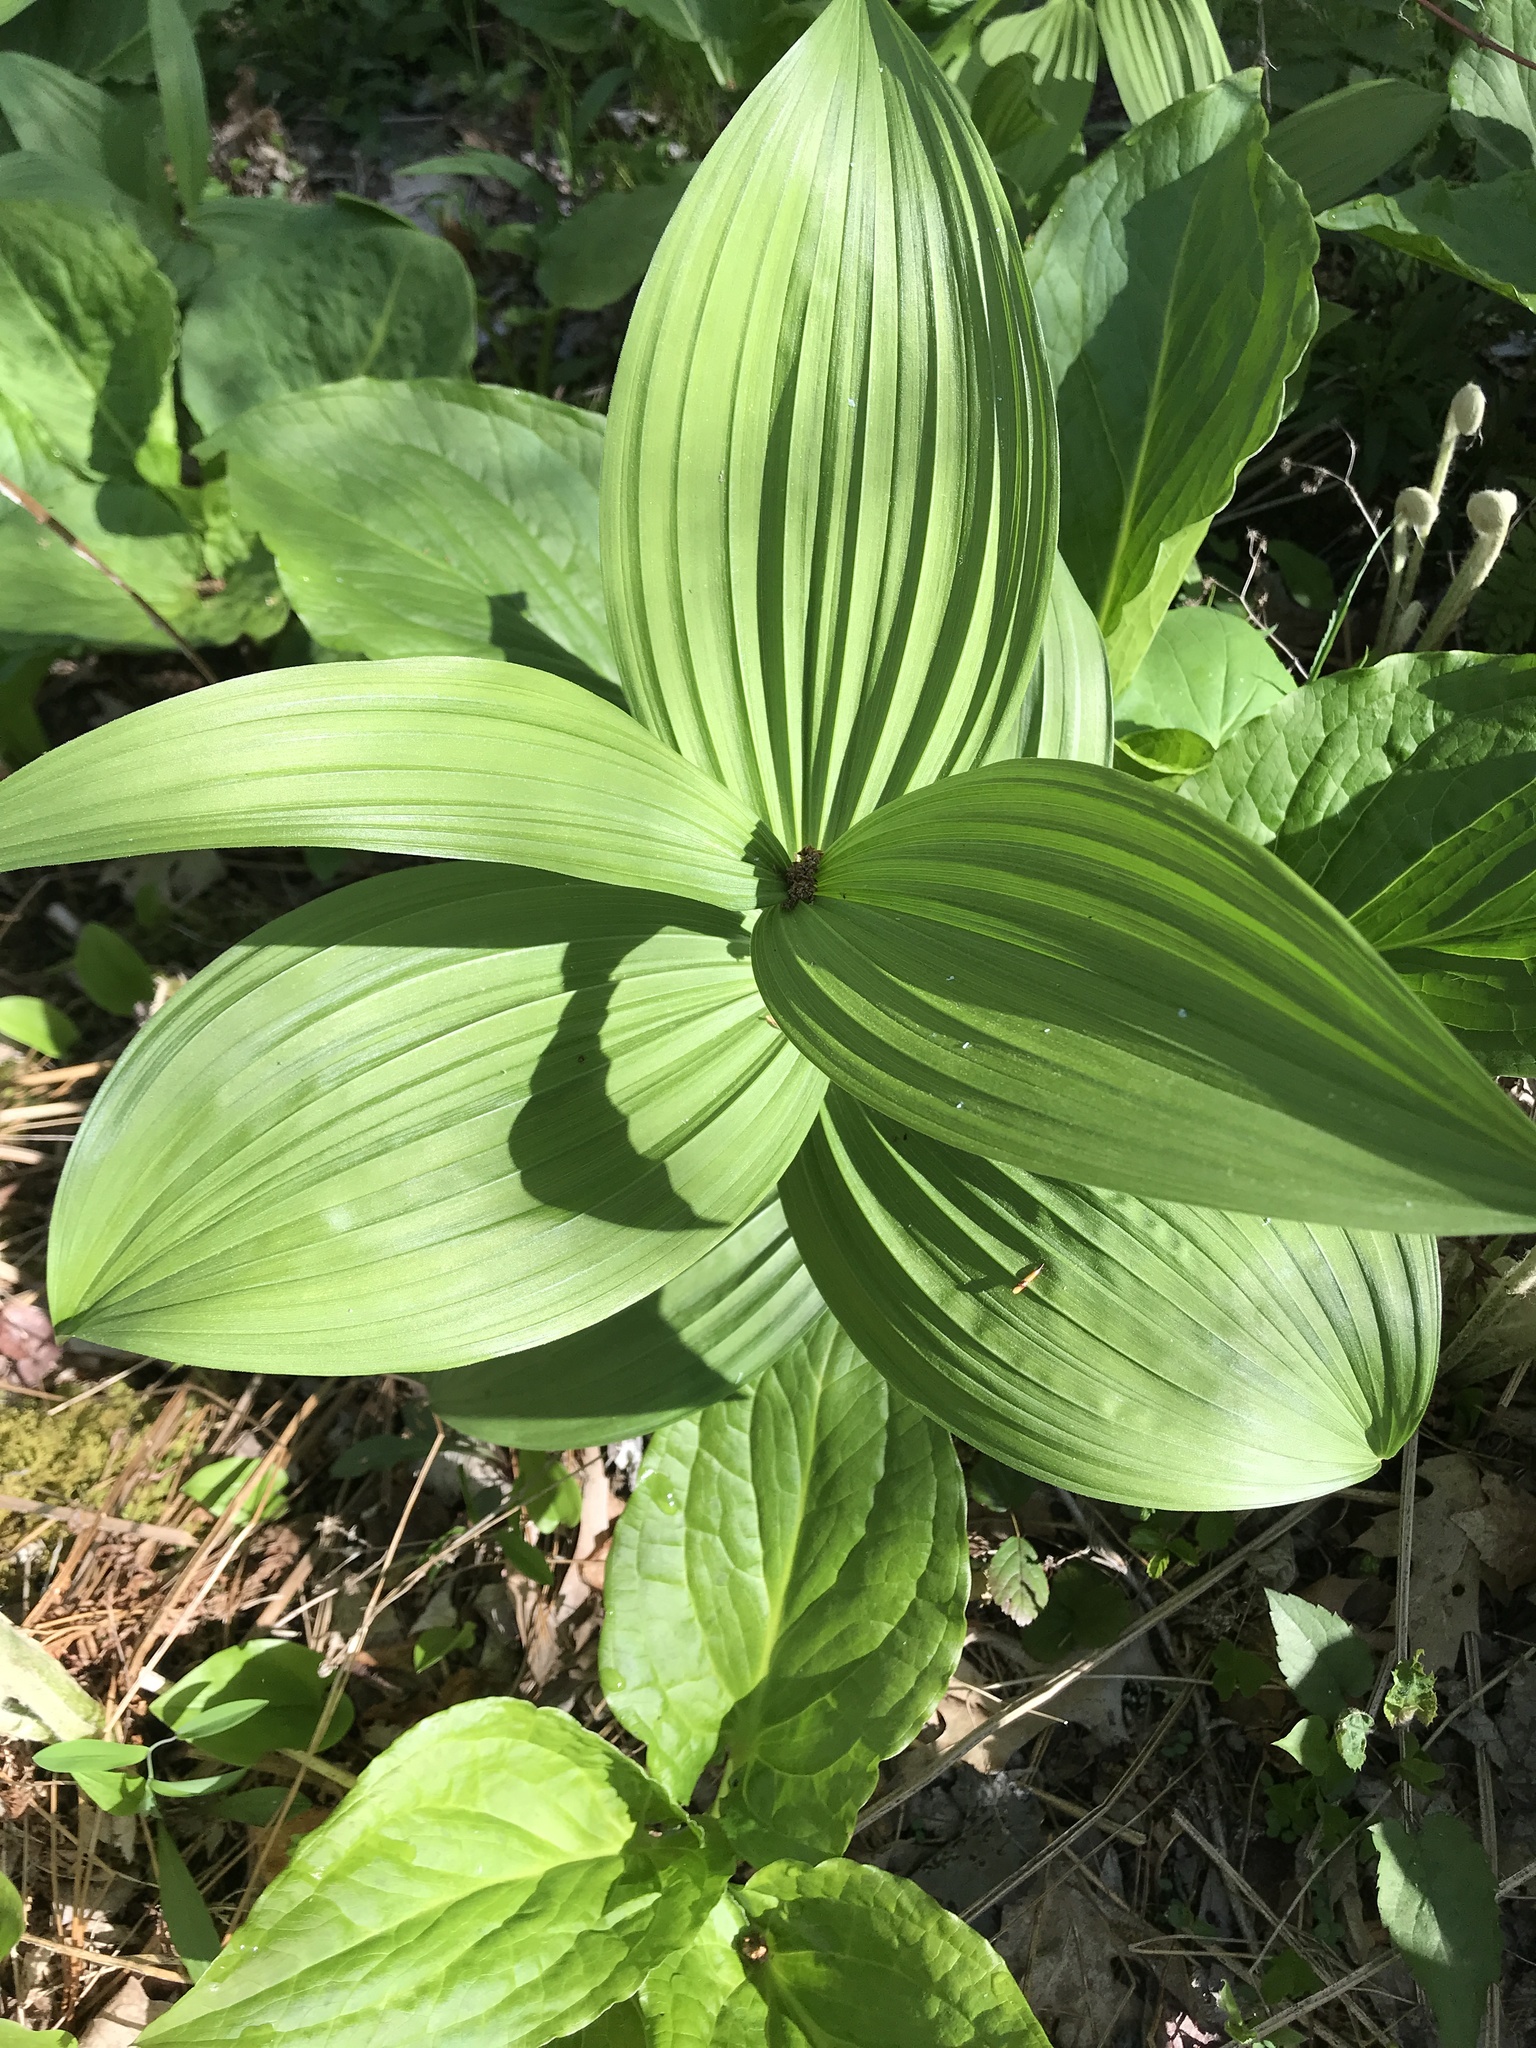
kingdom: Plantae
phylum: Tracheophyta
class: Liliopsida
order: Liliales
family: Melanthiaceae
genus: Veratrum
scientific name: Veratrum viride
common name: American false hellebore
